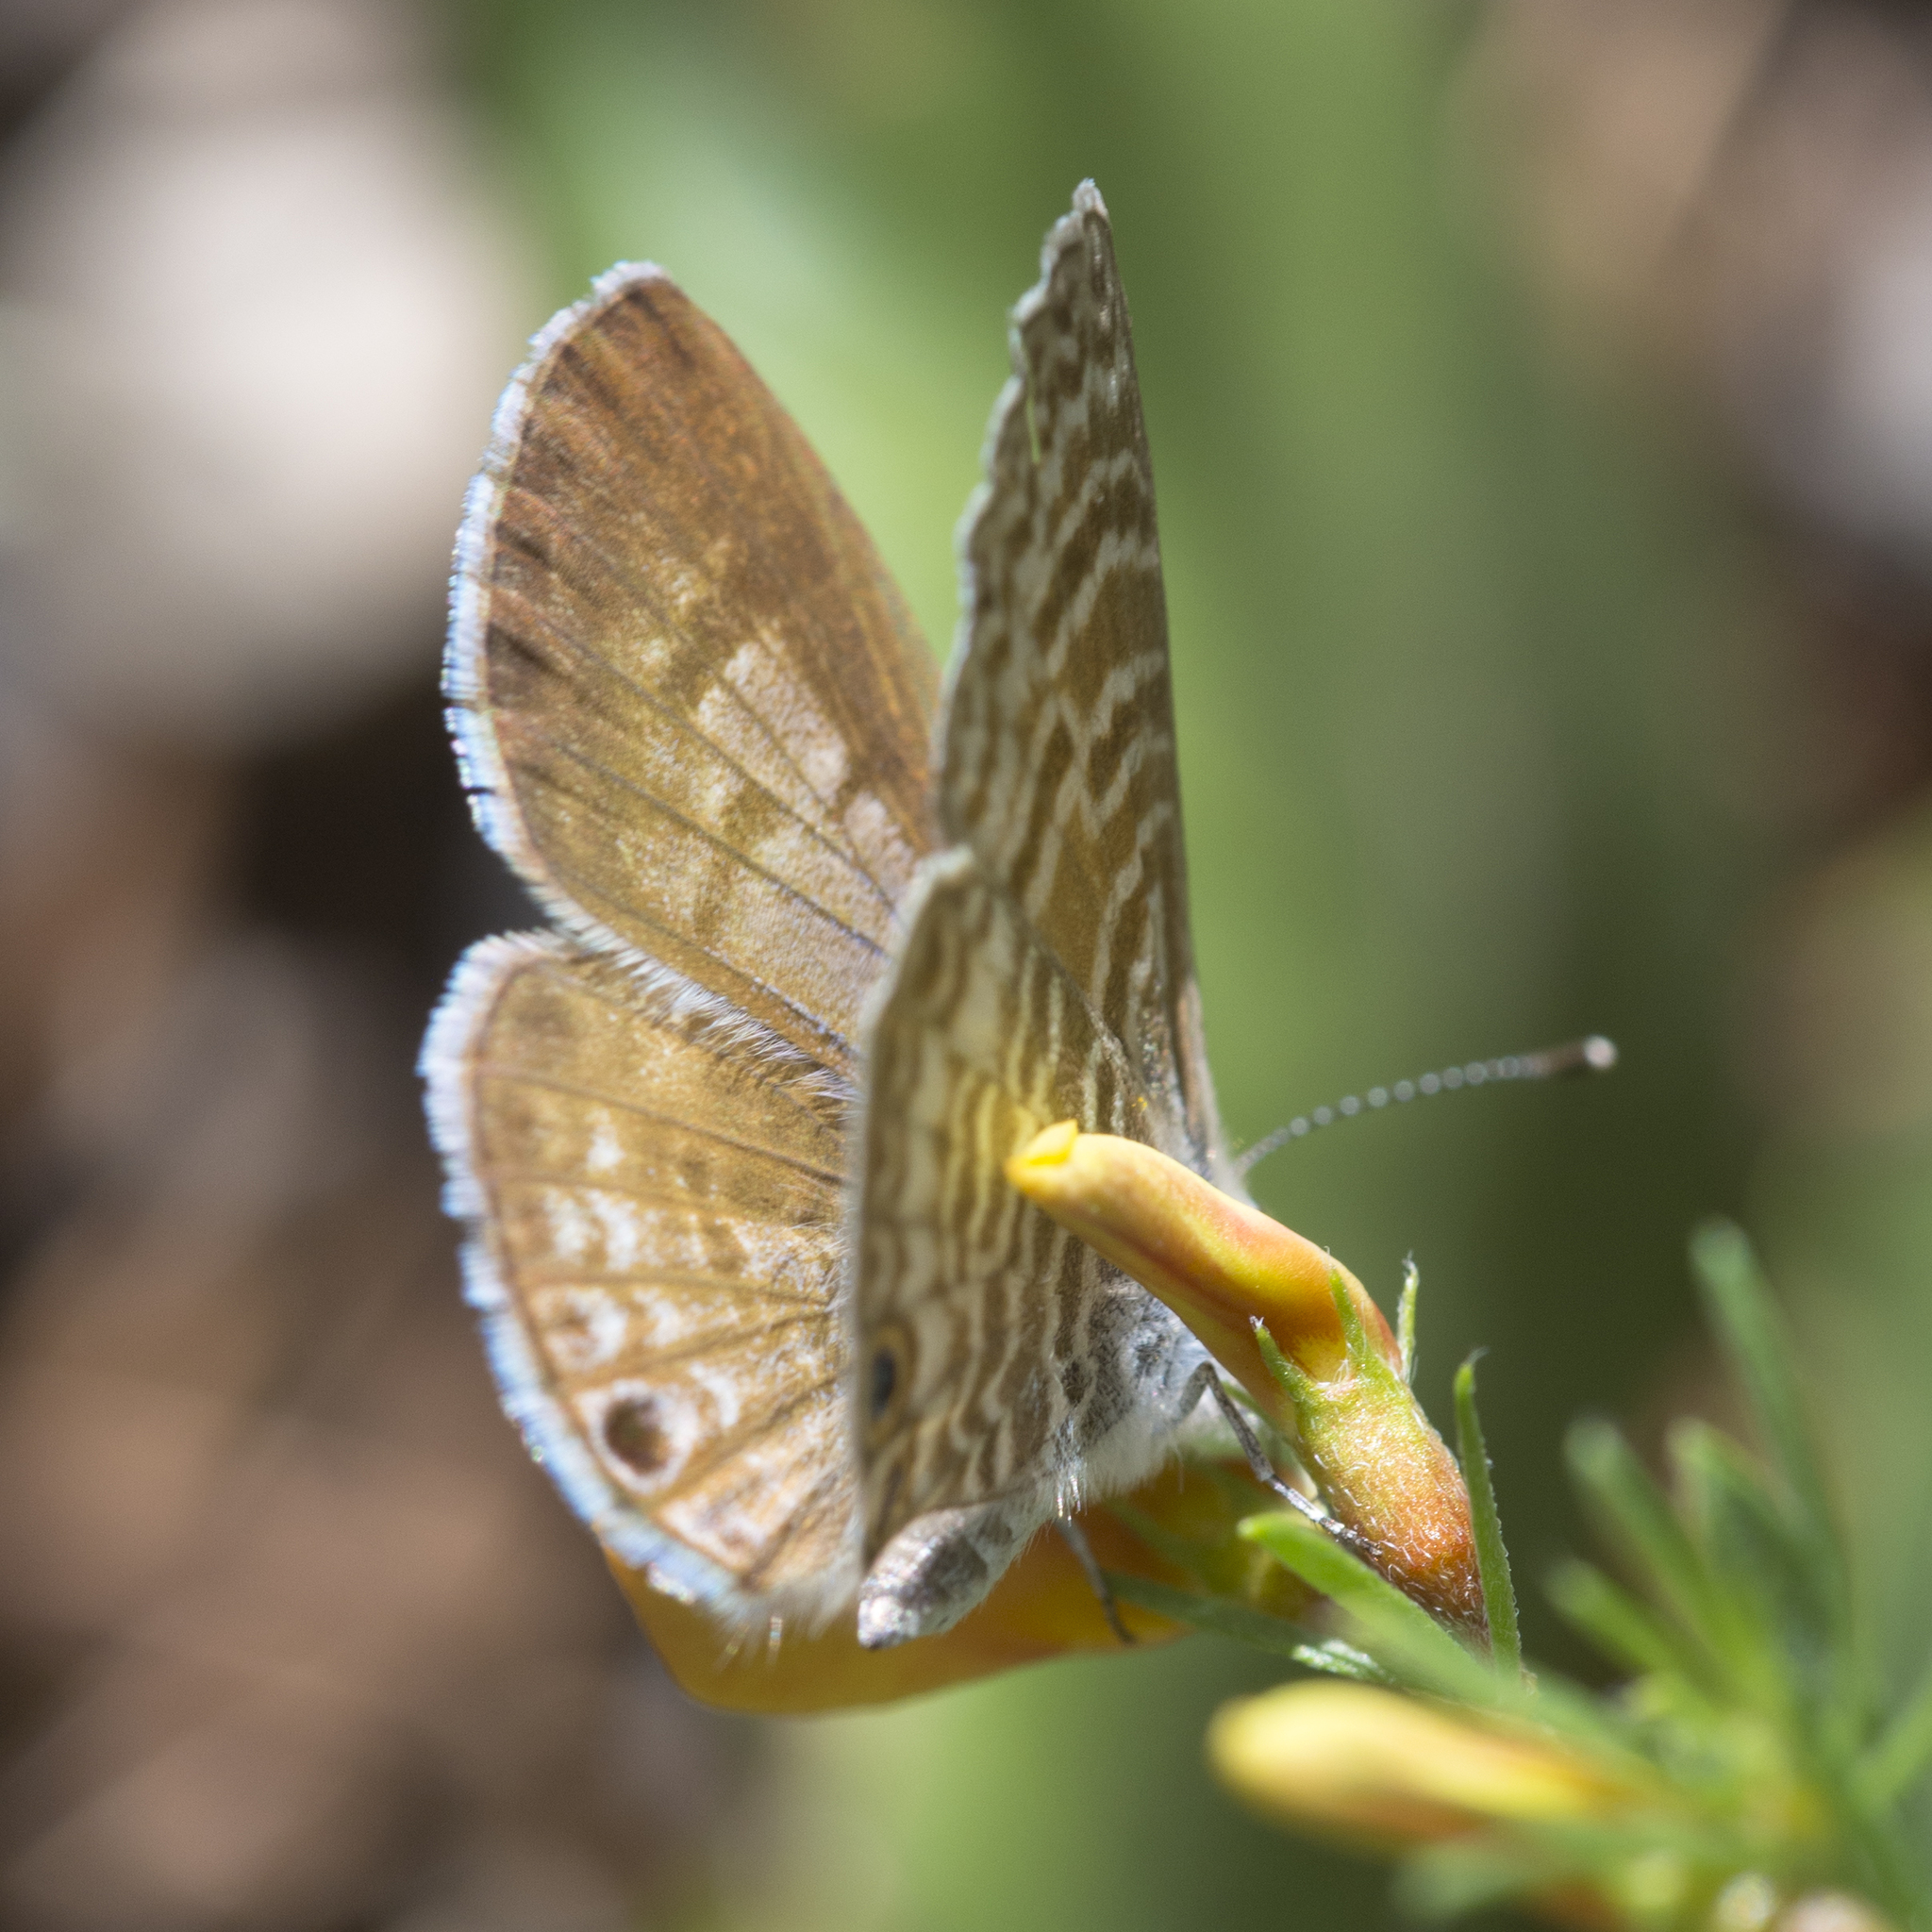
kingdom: Animalia
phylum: Arthropoda
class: Insecta
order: Lepidoptera
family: Lycaenidae
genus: Leptotes
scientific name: Leptotes marina
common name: Marine blue
